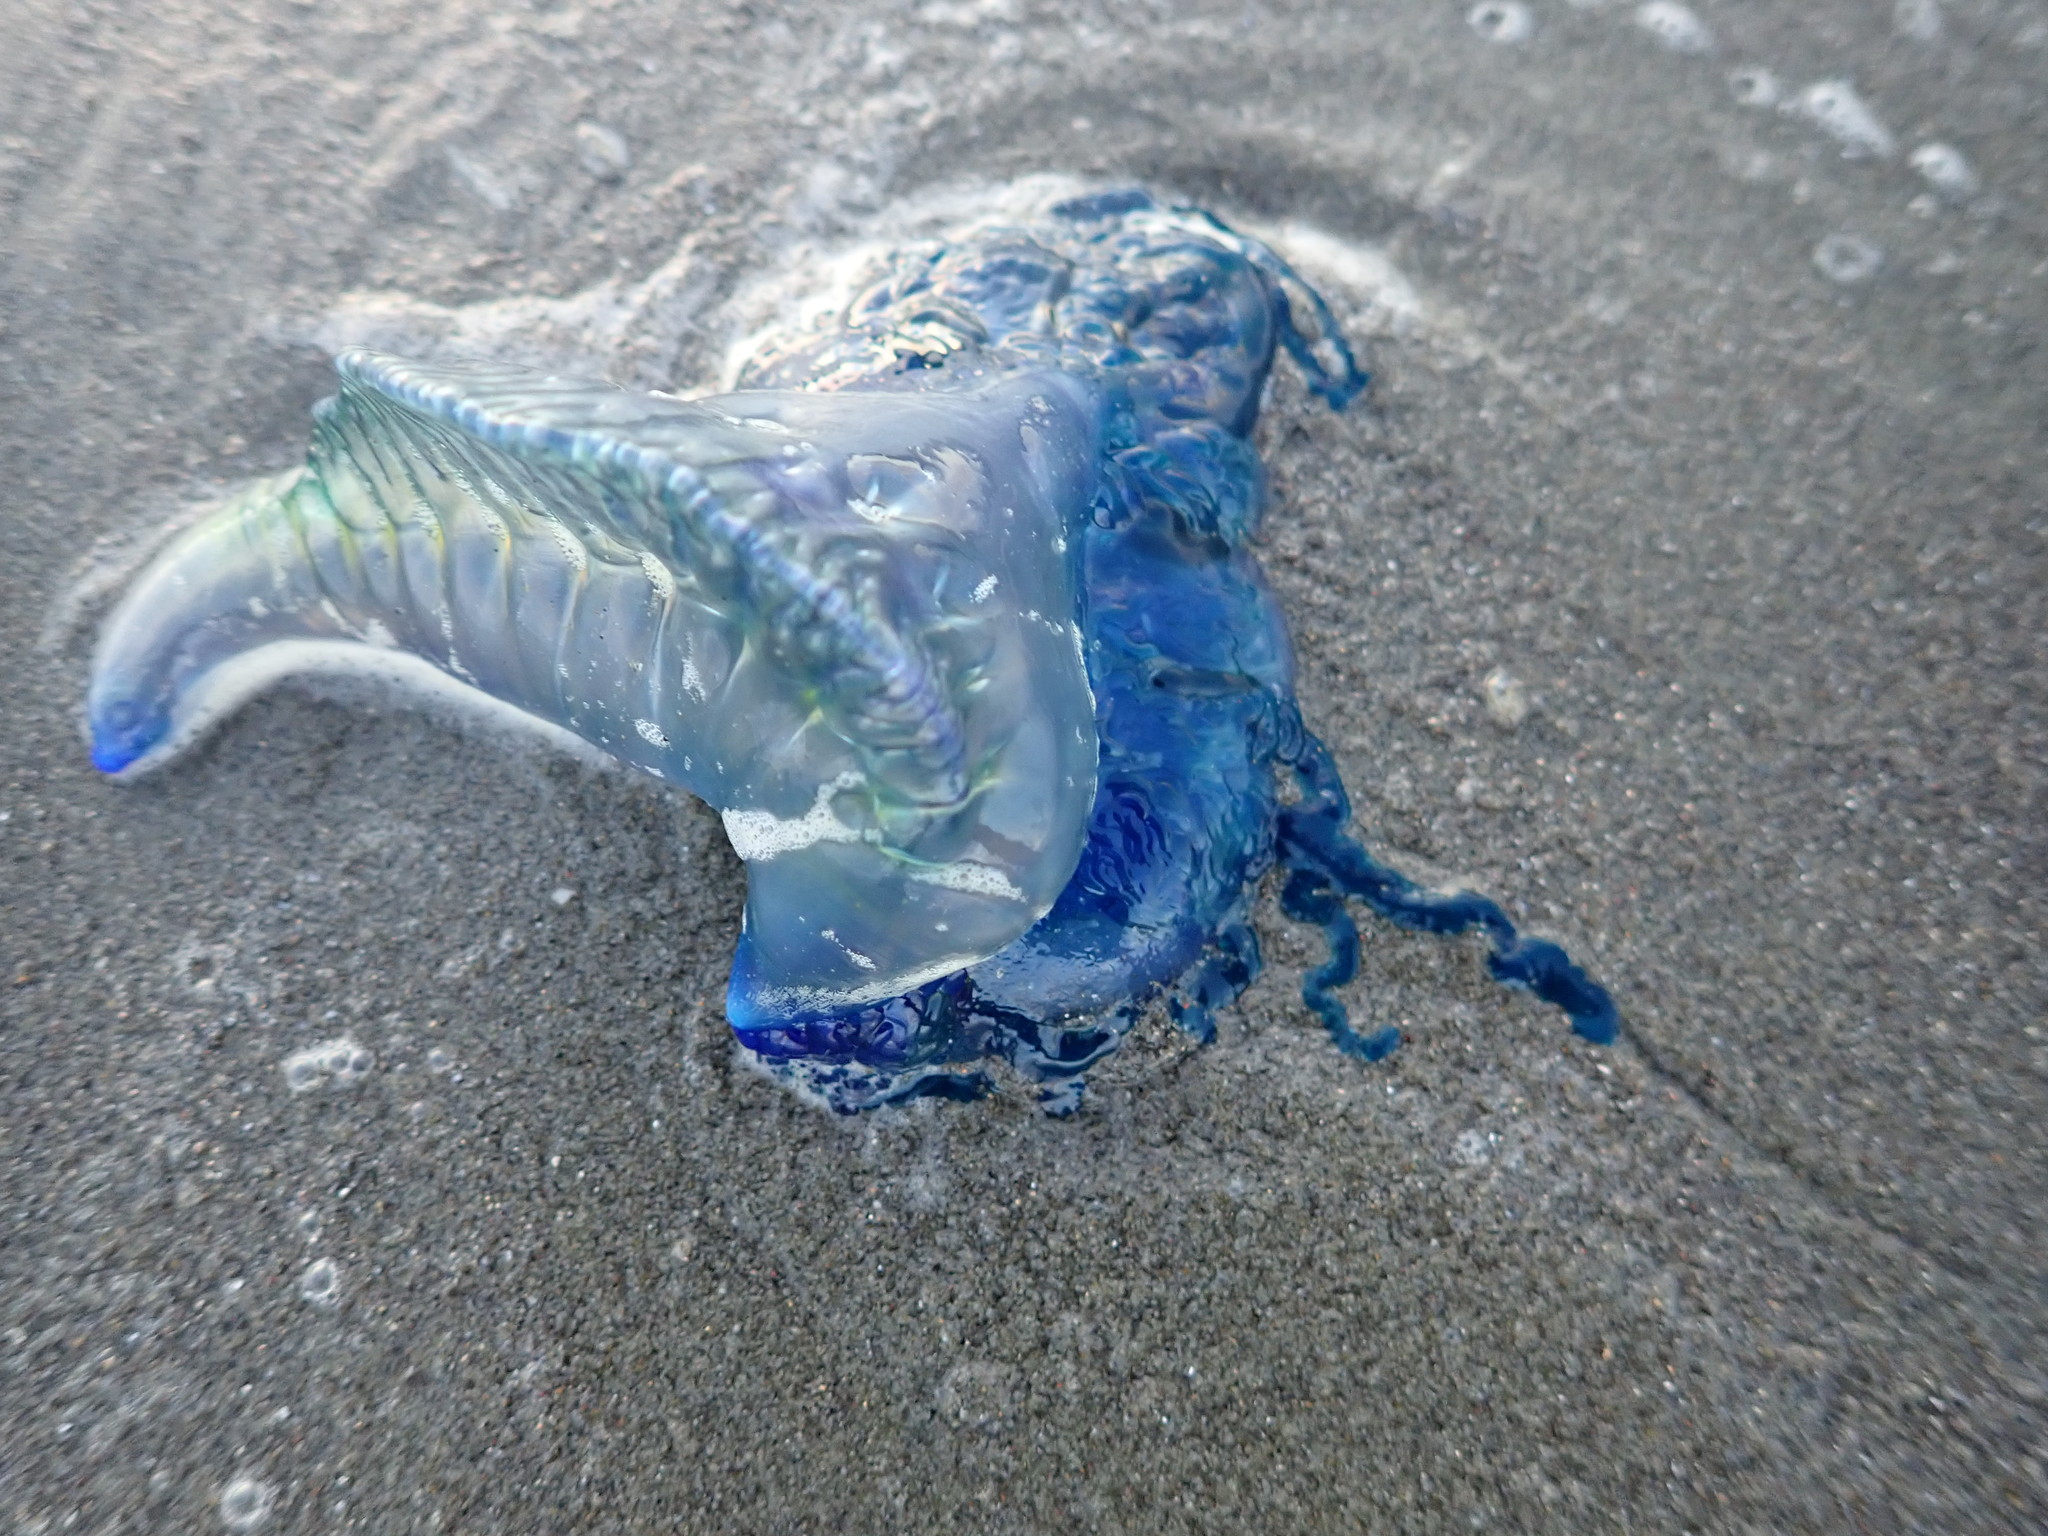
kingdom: Animalia
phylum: Cnidaria
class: Hydrozoa
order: Siphonophorae
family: Physaliidae
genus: Physalia
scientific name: Physalia physalis
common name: Portuguese man-of-war
